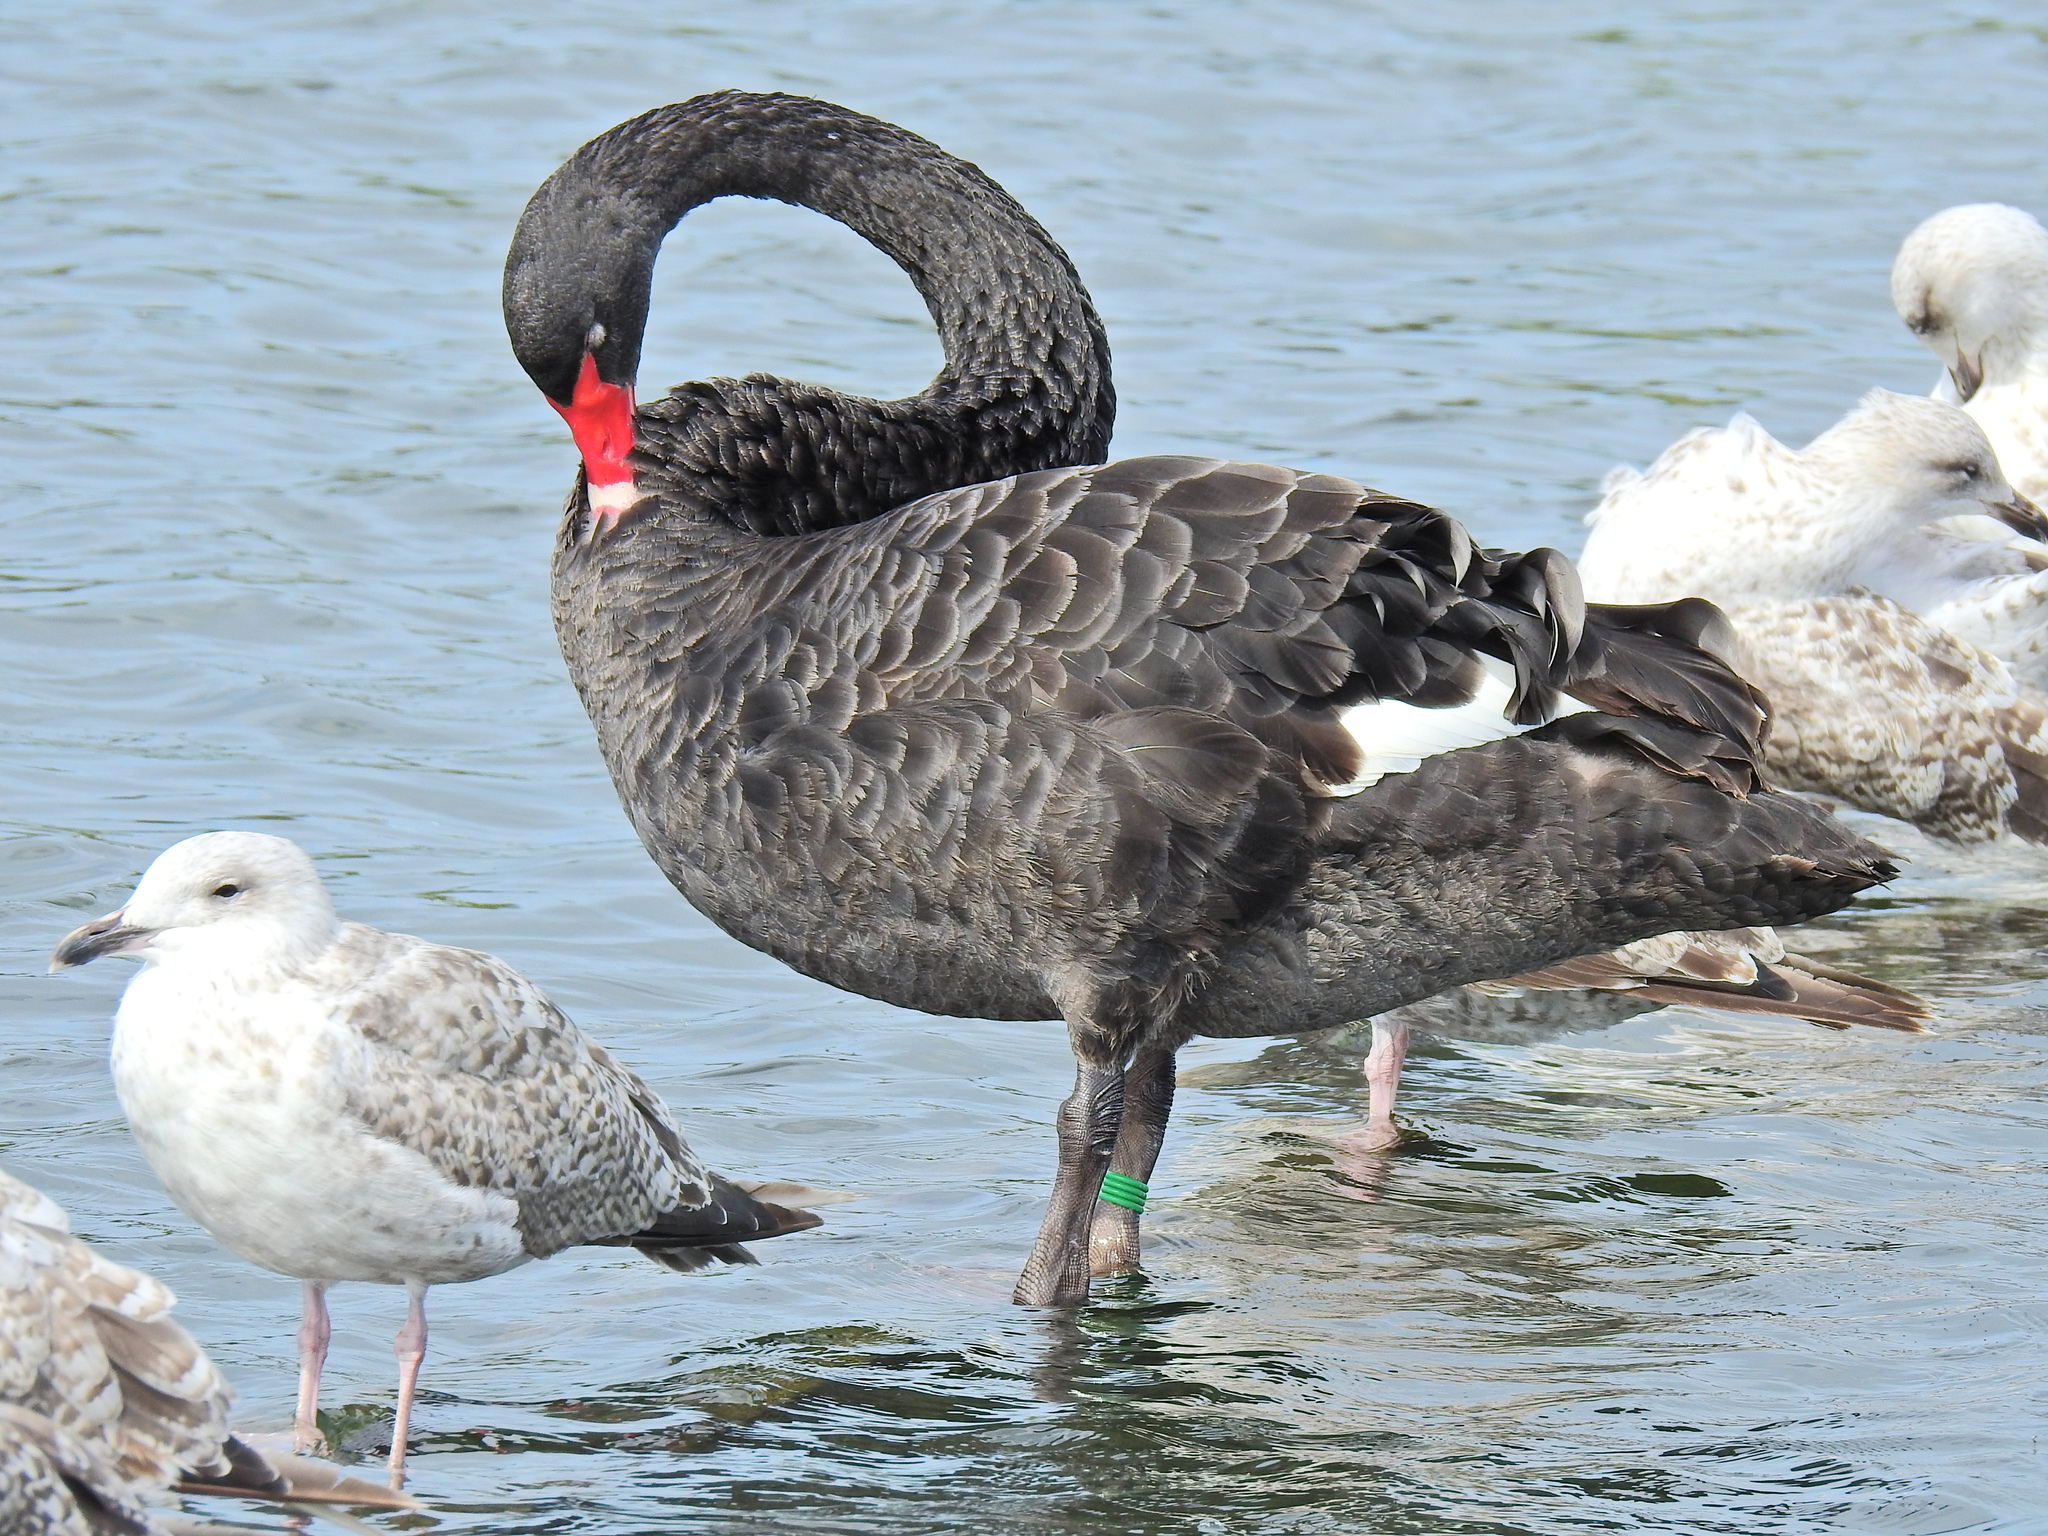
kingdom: Animalia
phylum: Chordata
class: Aves
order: Anseriformes
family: Anatidae
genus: Cygnus
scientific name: Cygnus atratus
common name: Black swan
